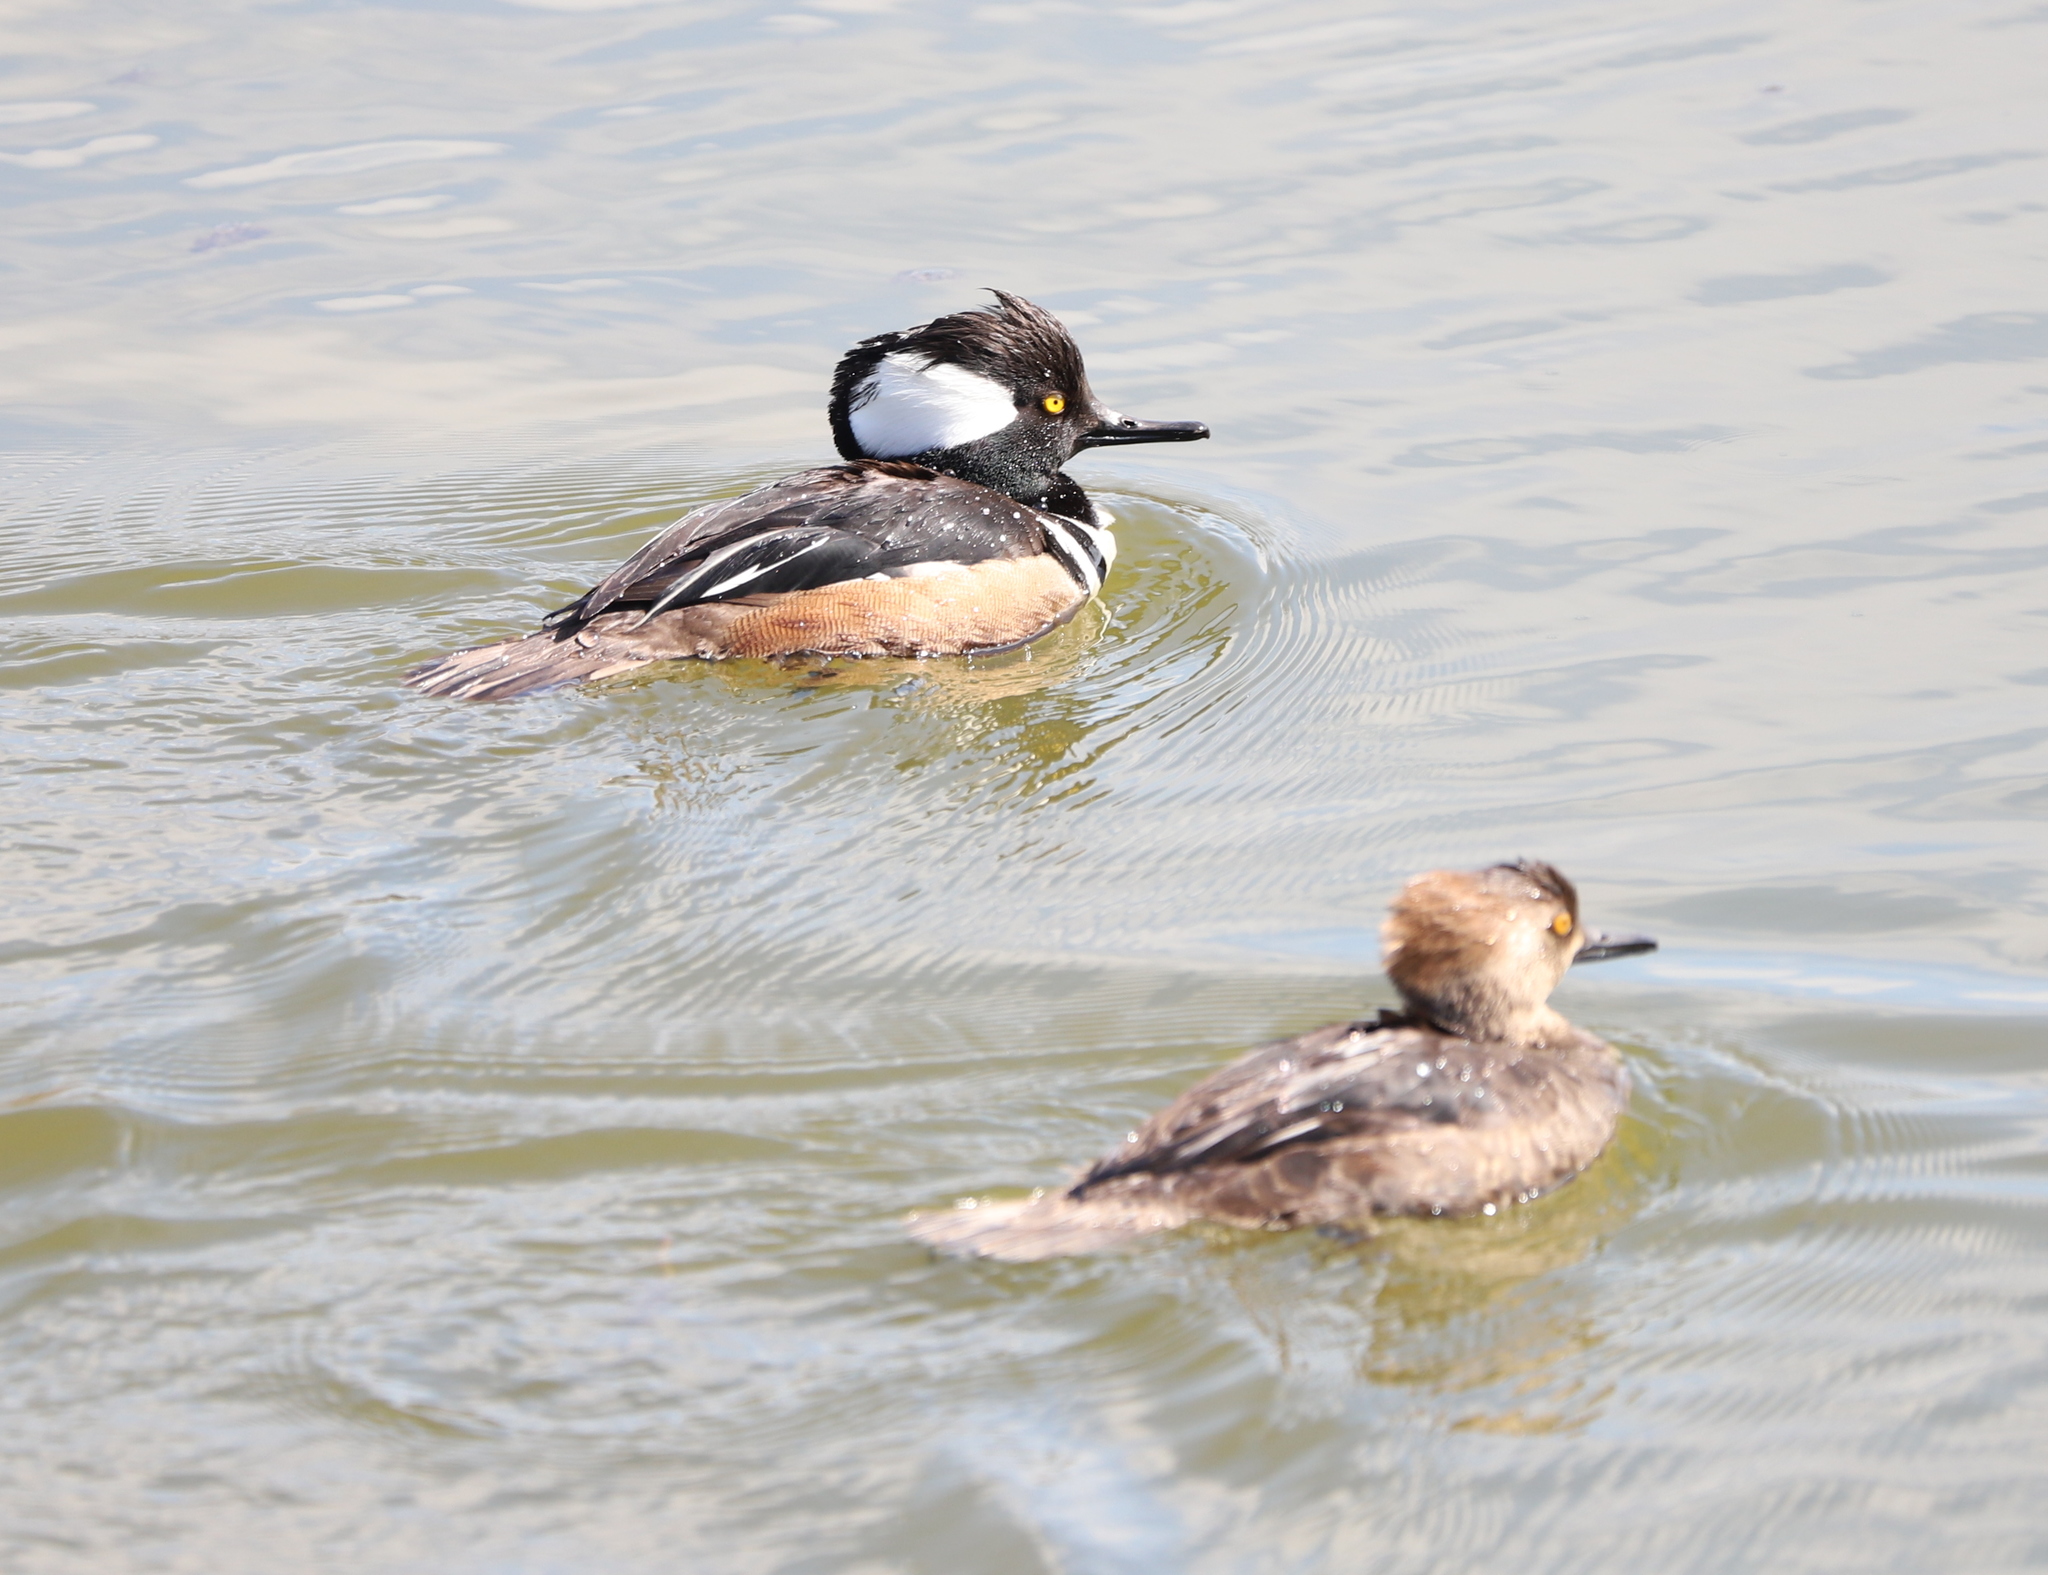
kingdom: Animalia
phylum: Chordata
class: Aves
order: Anseriformes
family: Anatidae
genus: Lophodytes
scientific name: Lophodytes cucullatus
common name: Hooded merganser
